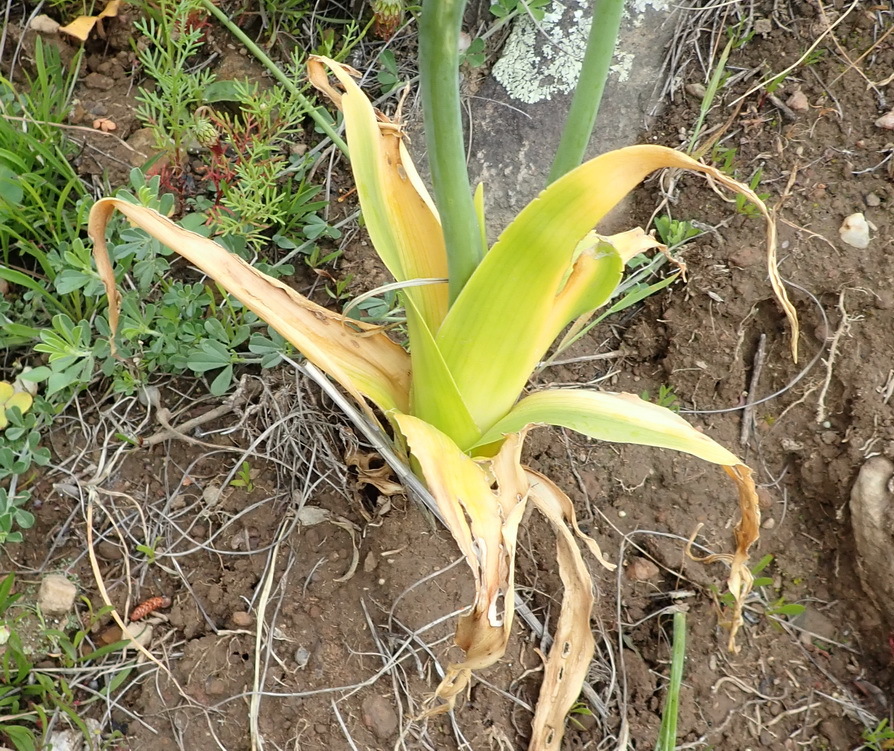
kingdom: Plantae
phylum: Tracheophyta
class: Liliopsida
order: Asparagales
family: Asparagaceae
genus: Ornithogalum
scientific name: Ornithogalum thyrsoides
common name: Chincherinchee
